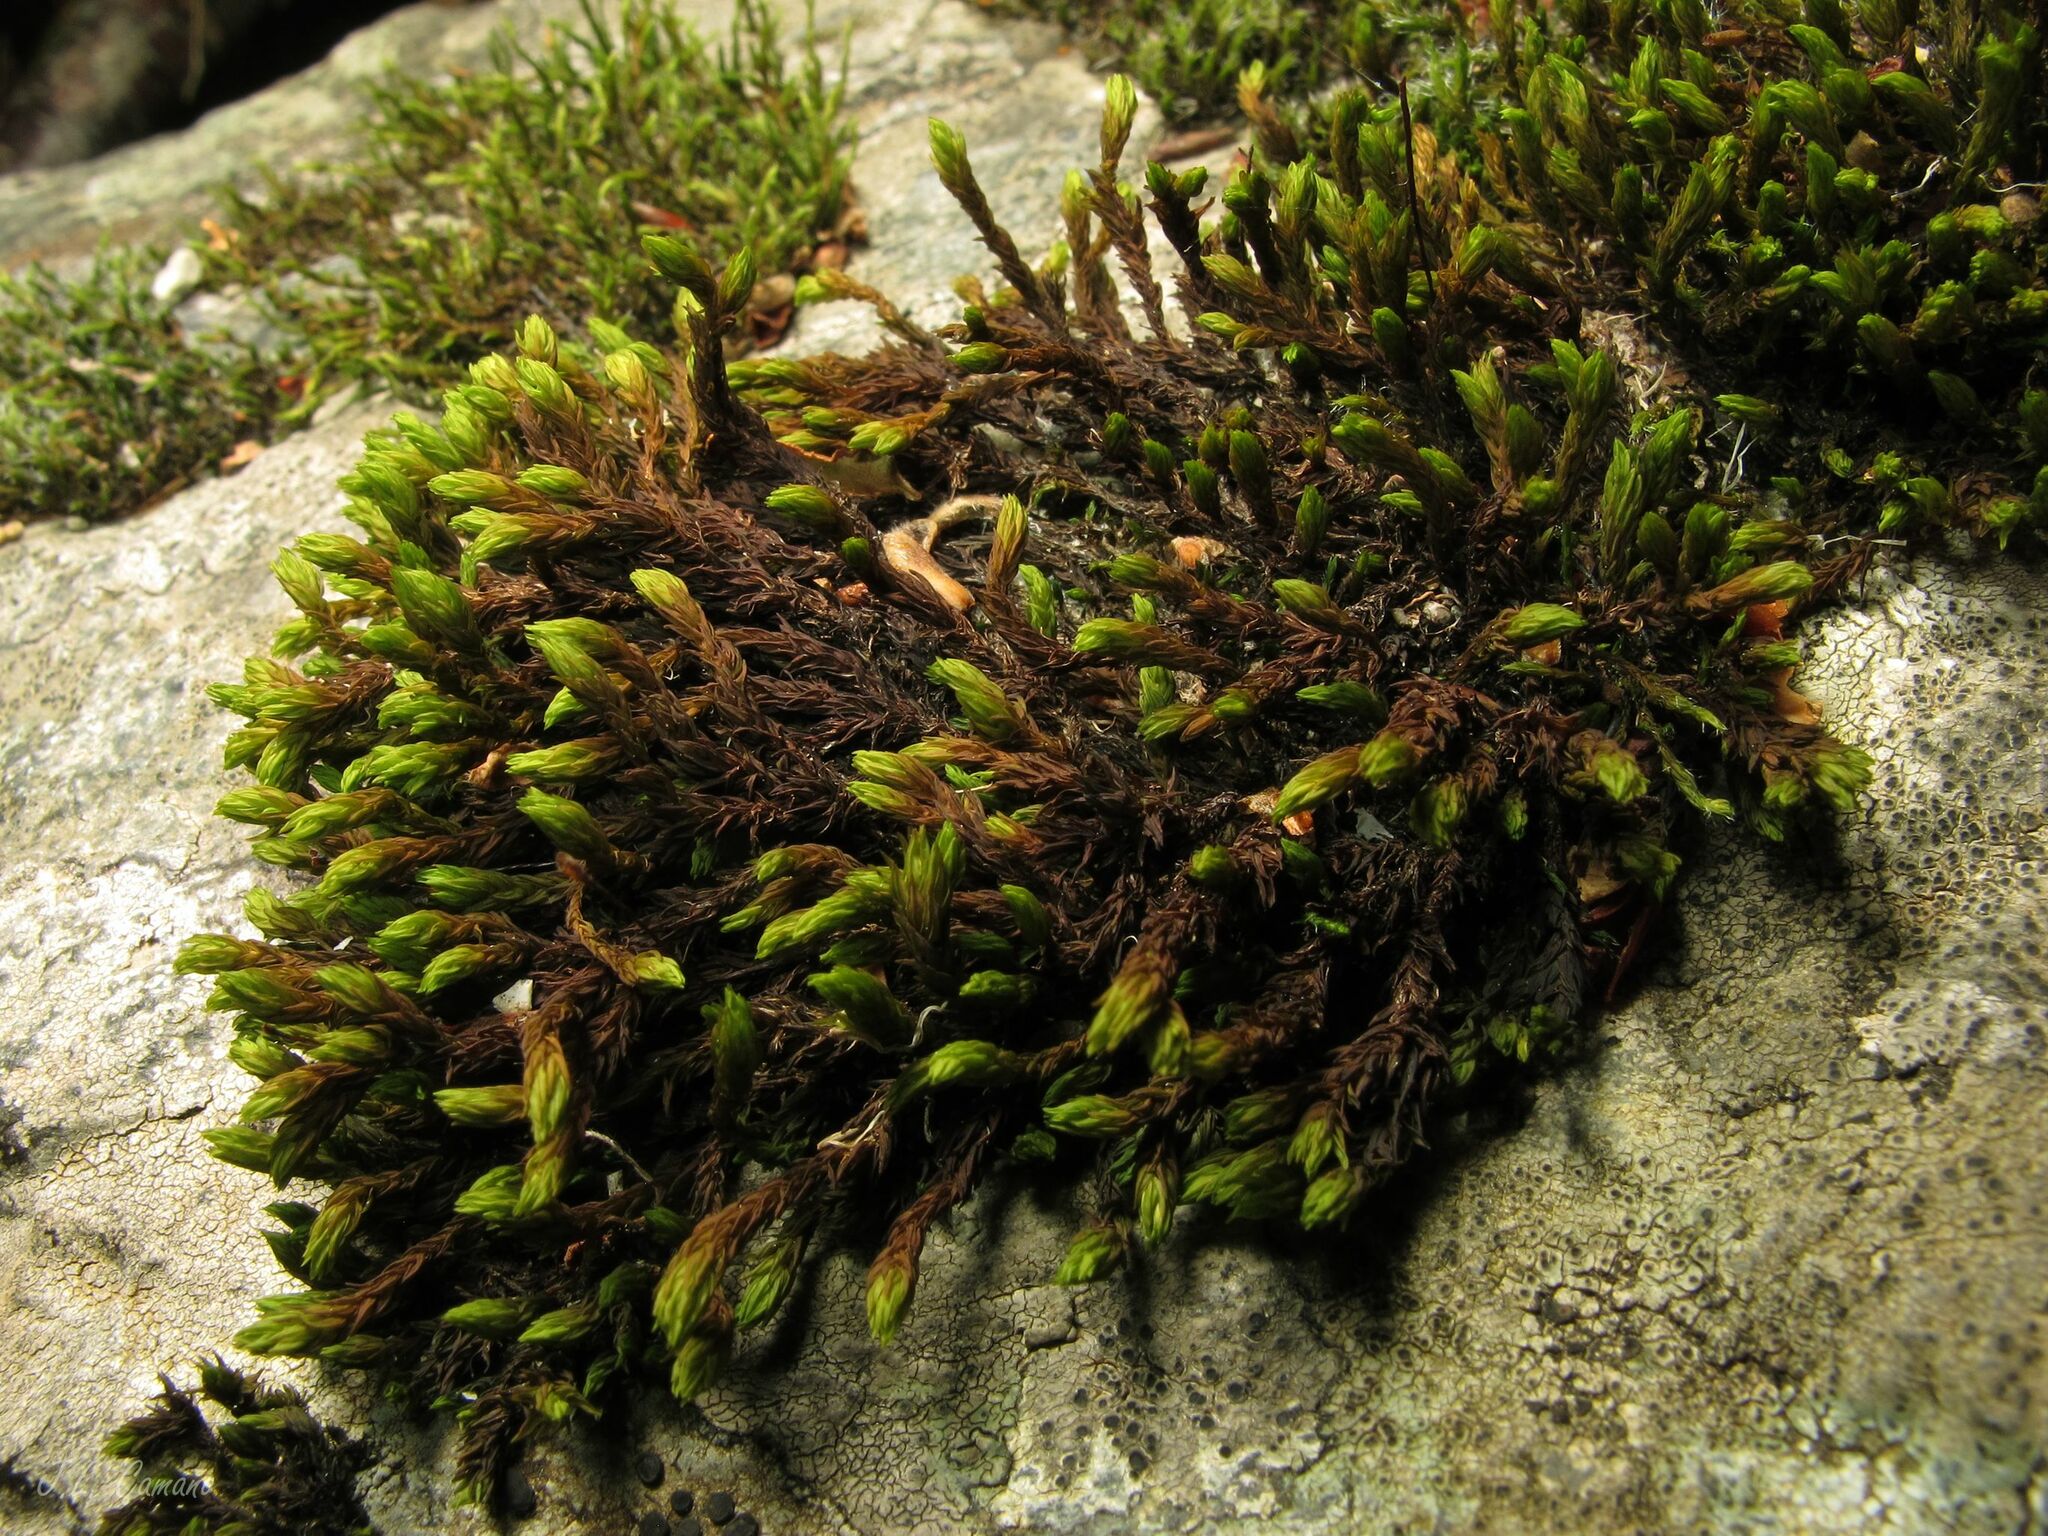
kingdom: Plantae
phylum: Bryophyta
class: Bryopsida
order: Grimmiales
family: Grimmiaceae
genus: Codriophorus
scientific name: Codriophorus acicularis
